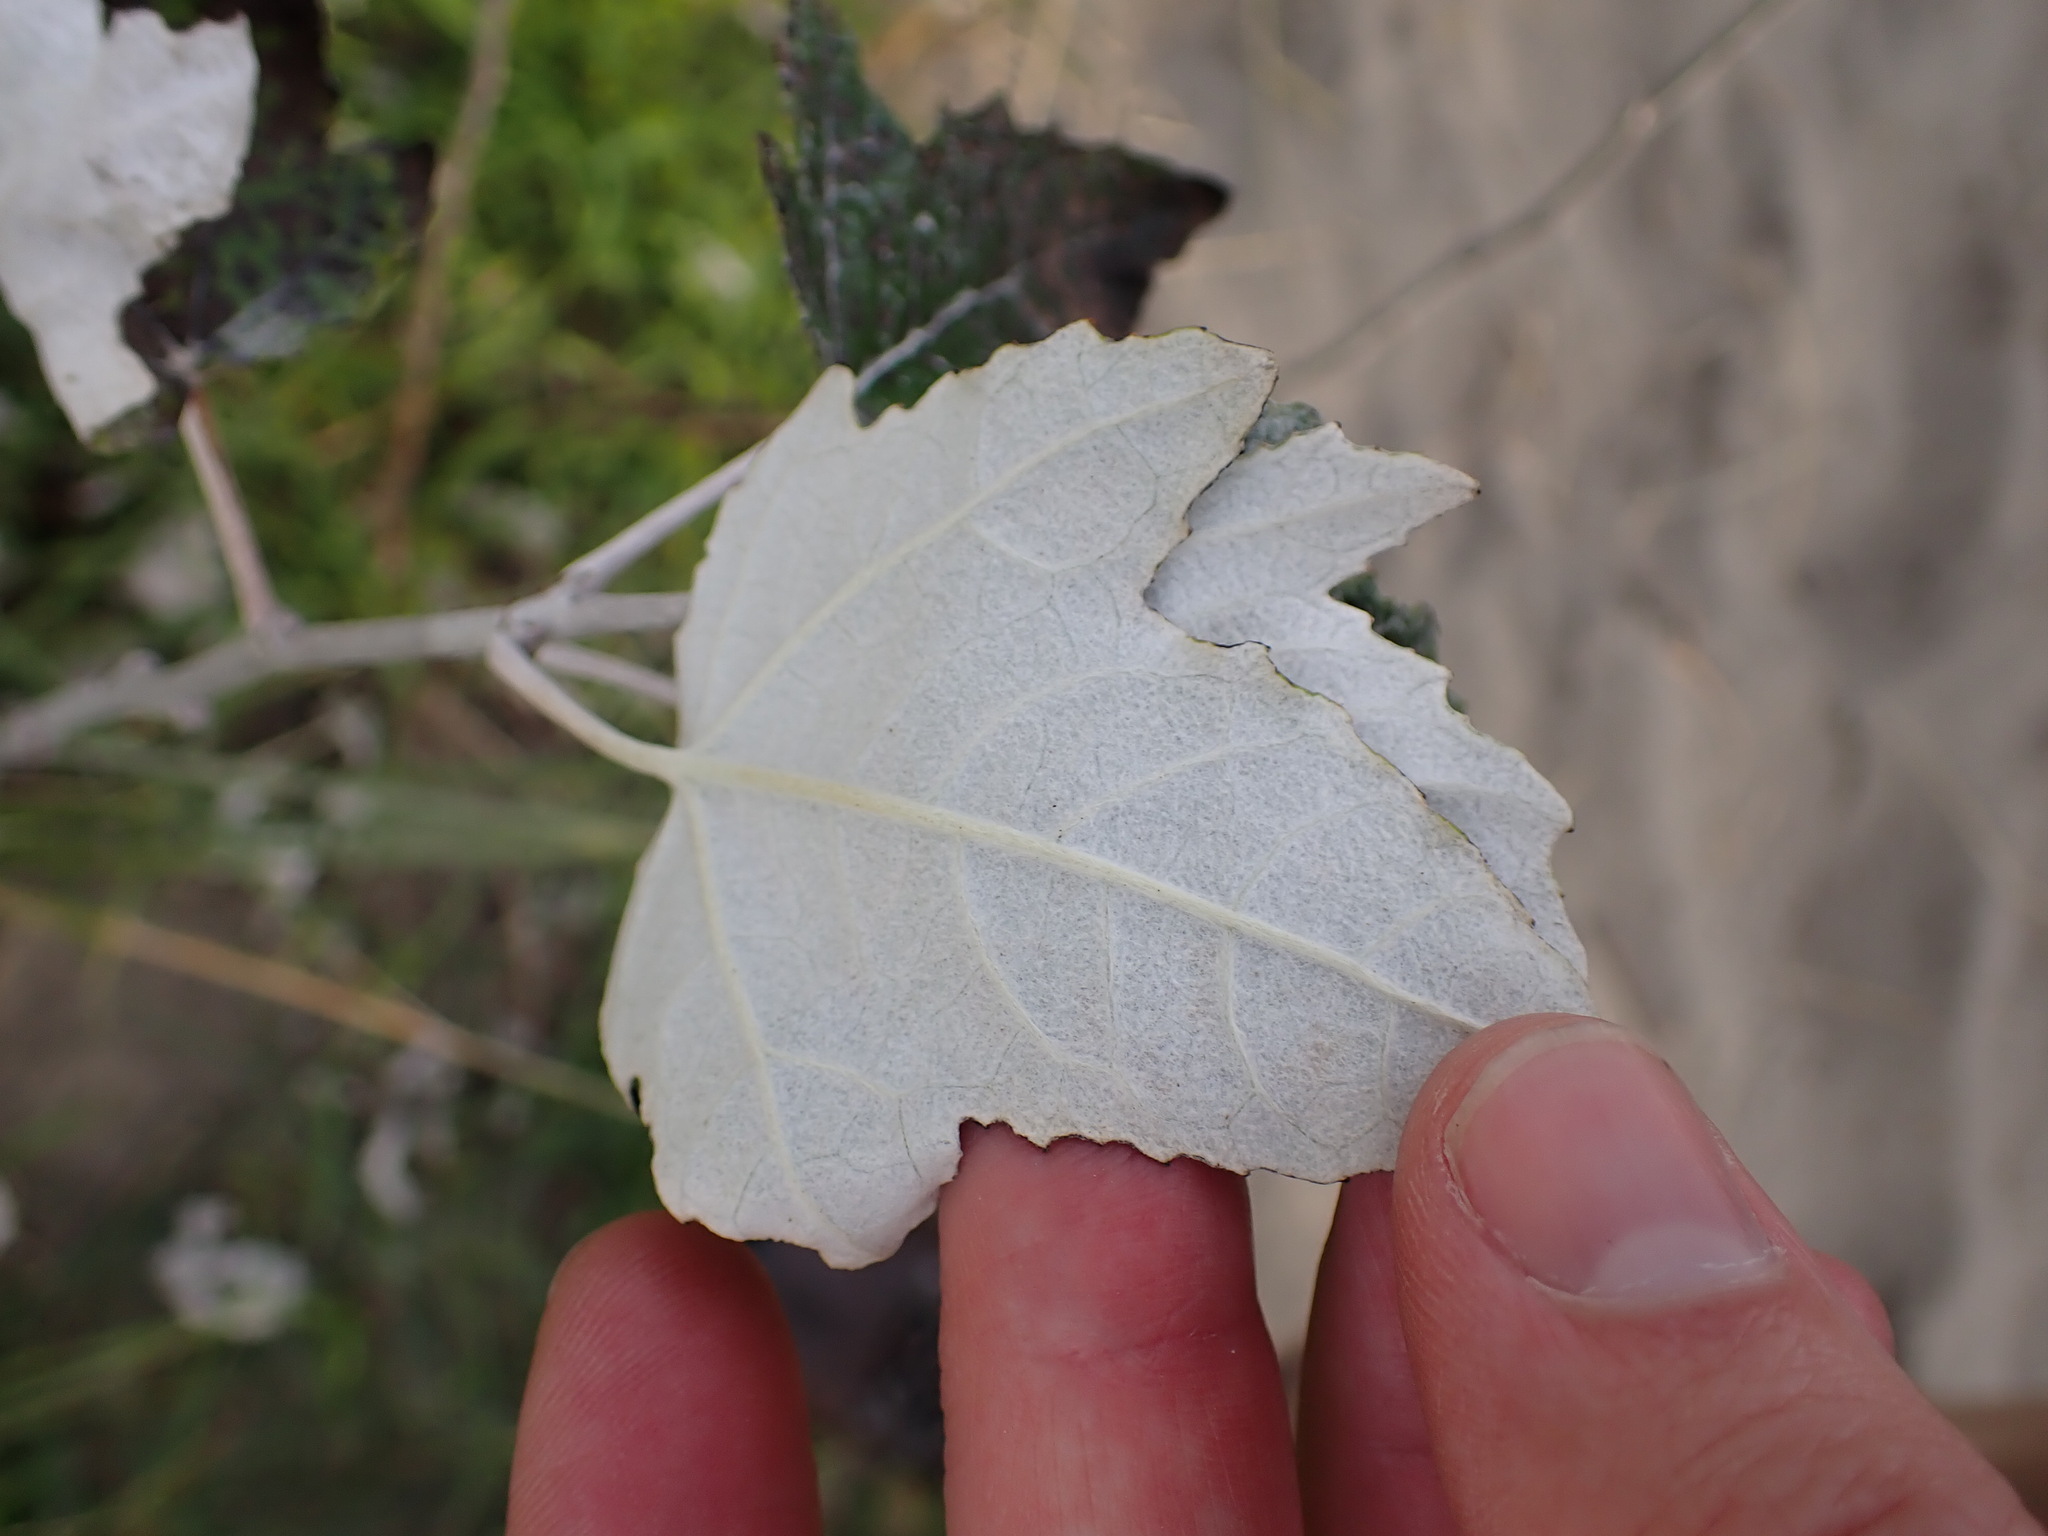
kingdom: Plantae
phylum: Tracheophyta
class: Magnoliopsida
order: Malpighiales
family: Salicaceae
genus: Populus
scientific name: Populus alba
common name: White poplar
